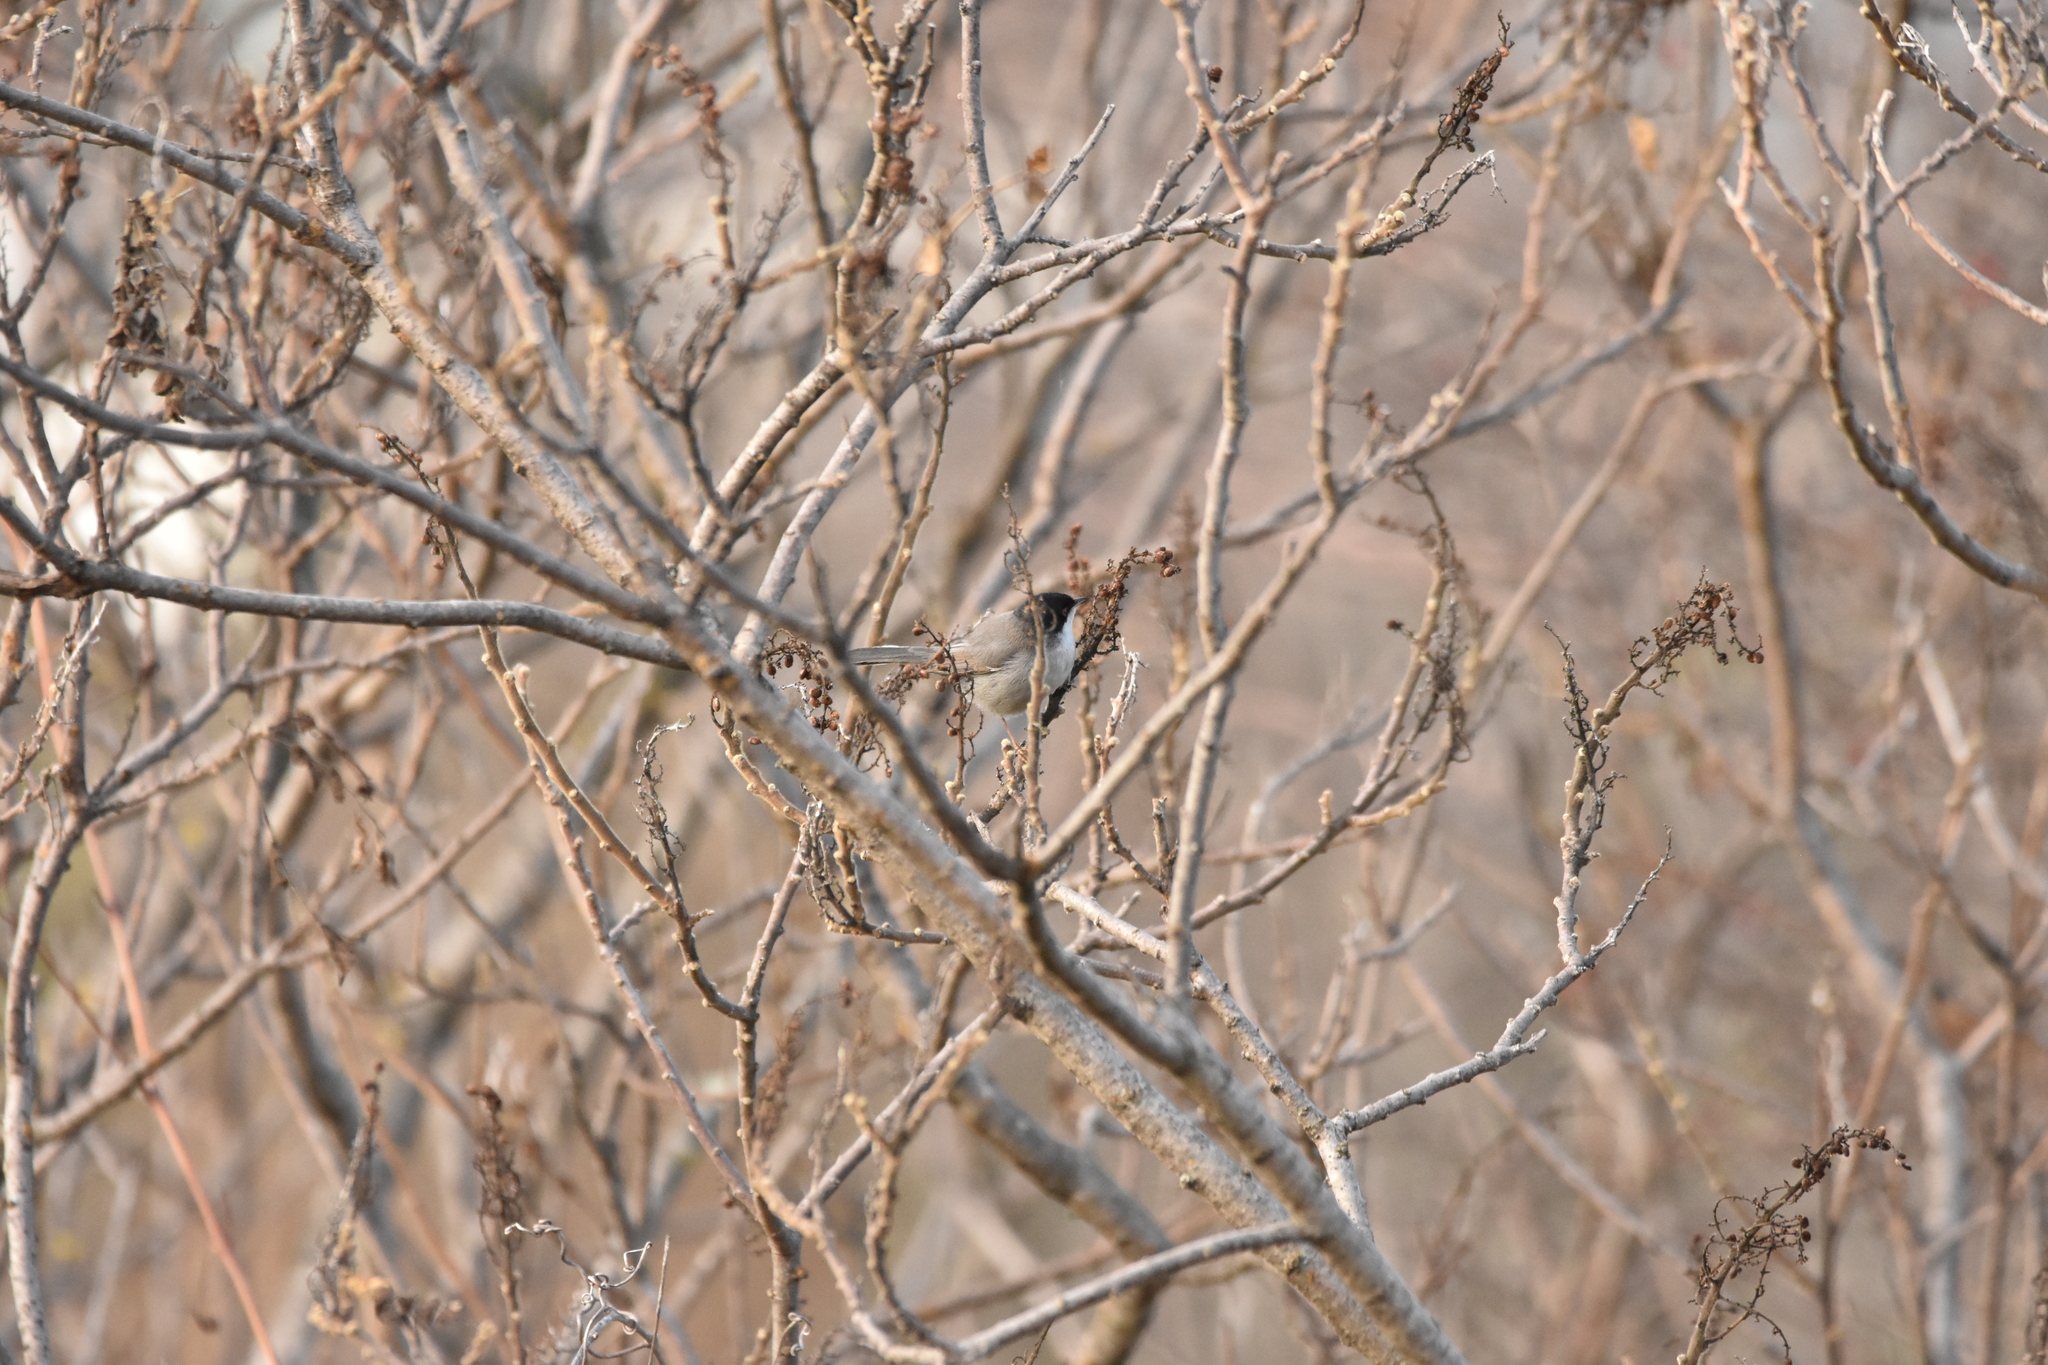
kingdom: Animalia
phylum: Chordata
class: Aves
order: Passeriformes
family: Sylviidae
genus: Curruca
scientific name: Curruca melanocephala
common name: Sardinian warbler
